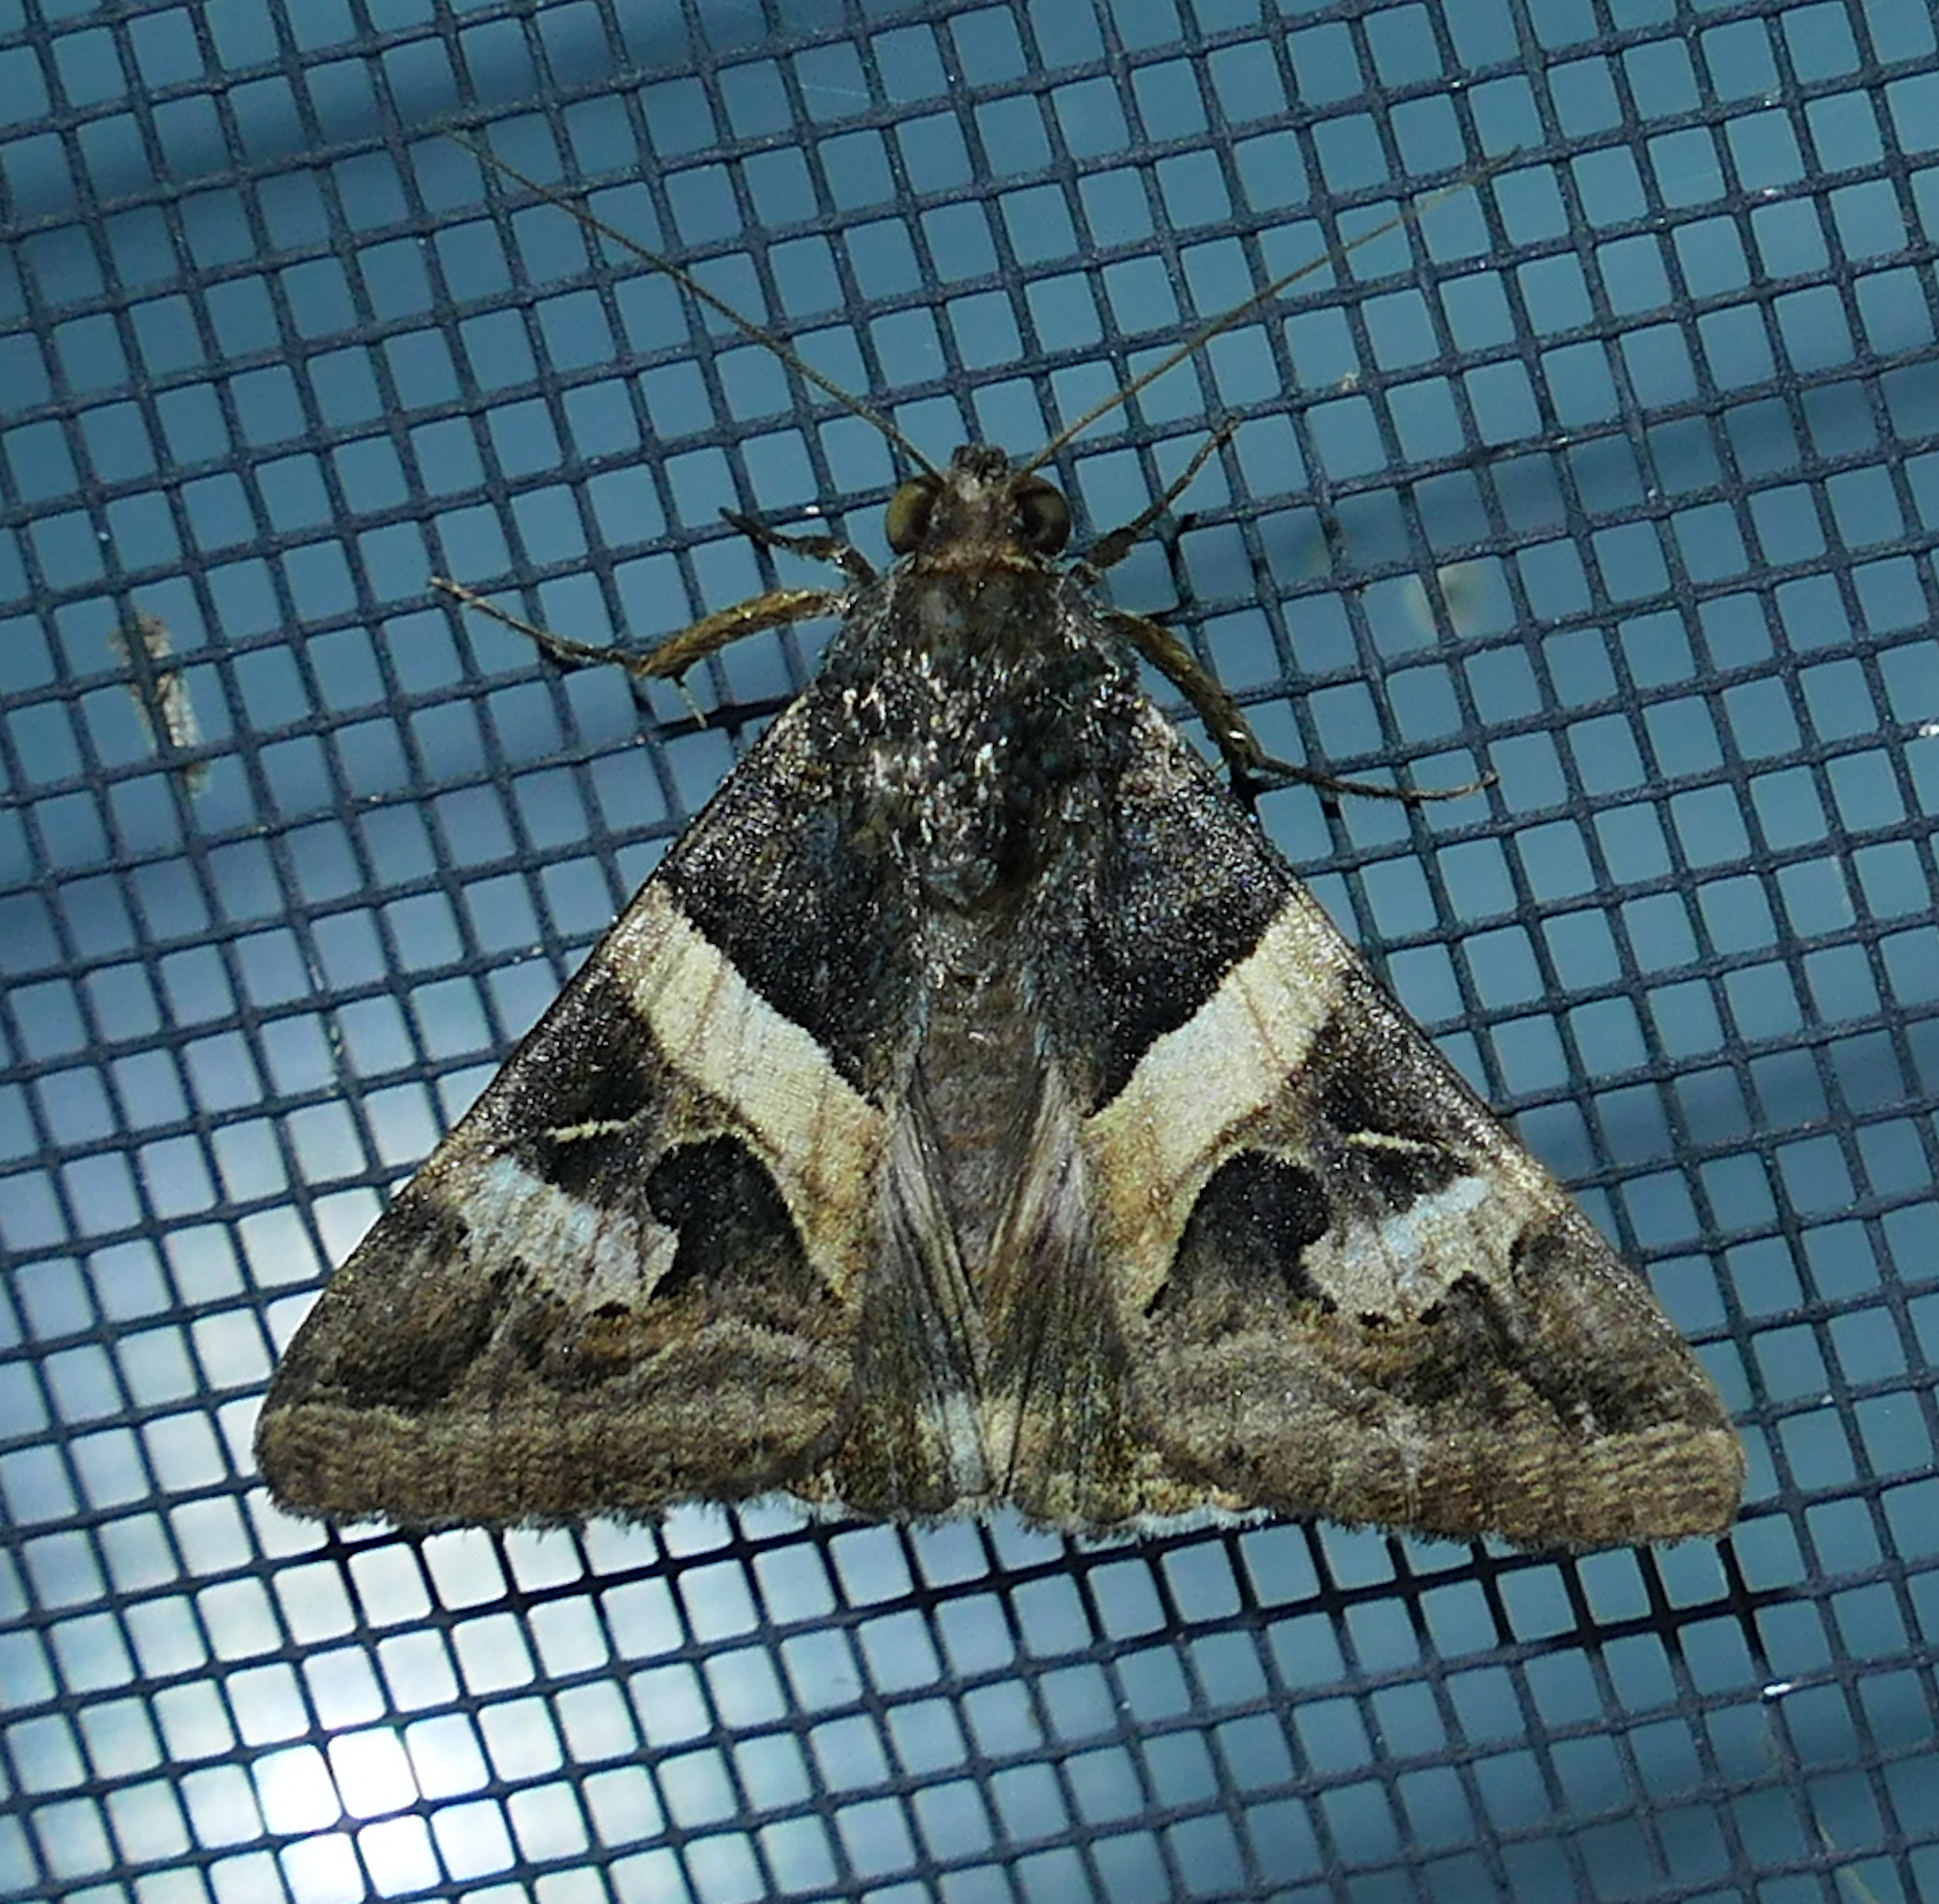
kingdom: Animalia
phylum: Arthropoda
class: Insecta
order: Lepidoptera
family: Erebidae
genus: Melipotis
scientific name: Melipotis indomita
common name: Moth
